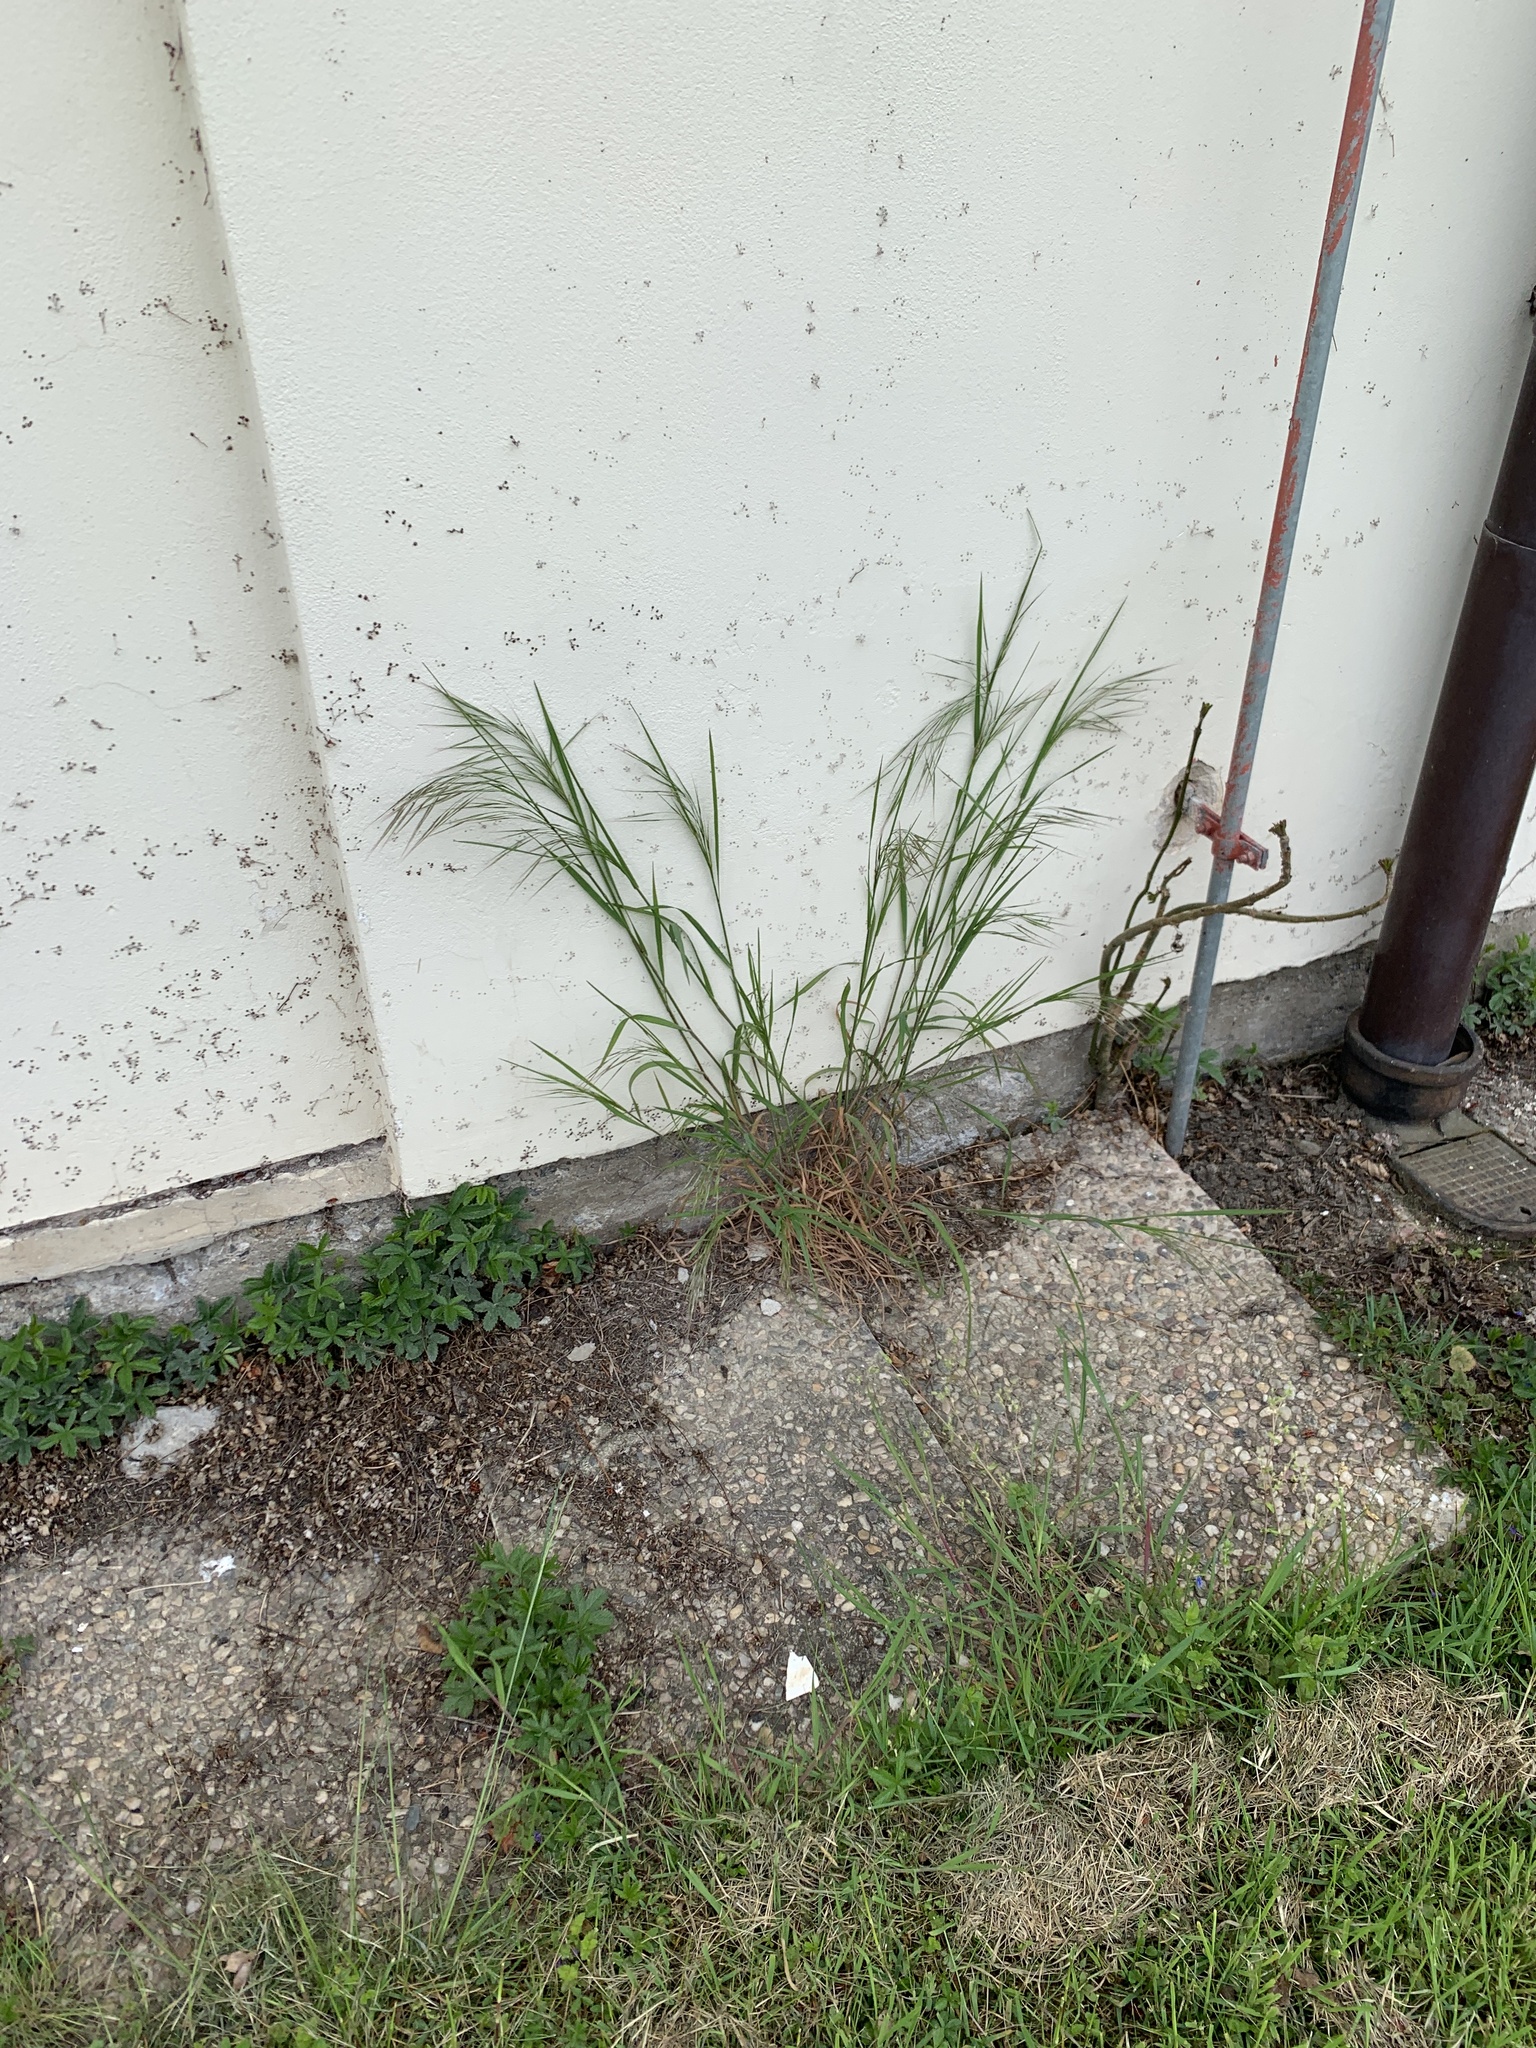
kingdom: Plantae
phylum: Tracheophyta
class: Liliopsida
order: Poales
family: Poaceae
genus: Bromus
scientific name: Bromus sterilis
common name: Poverty brome
